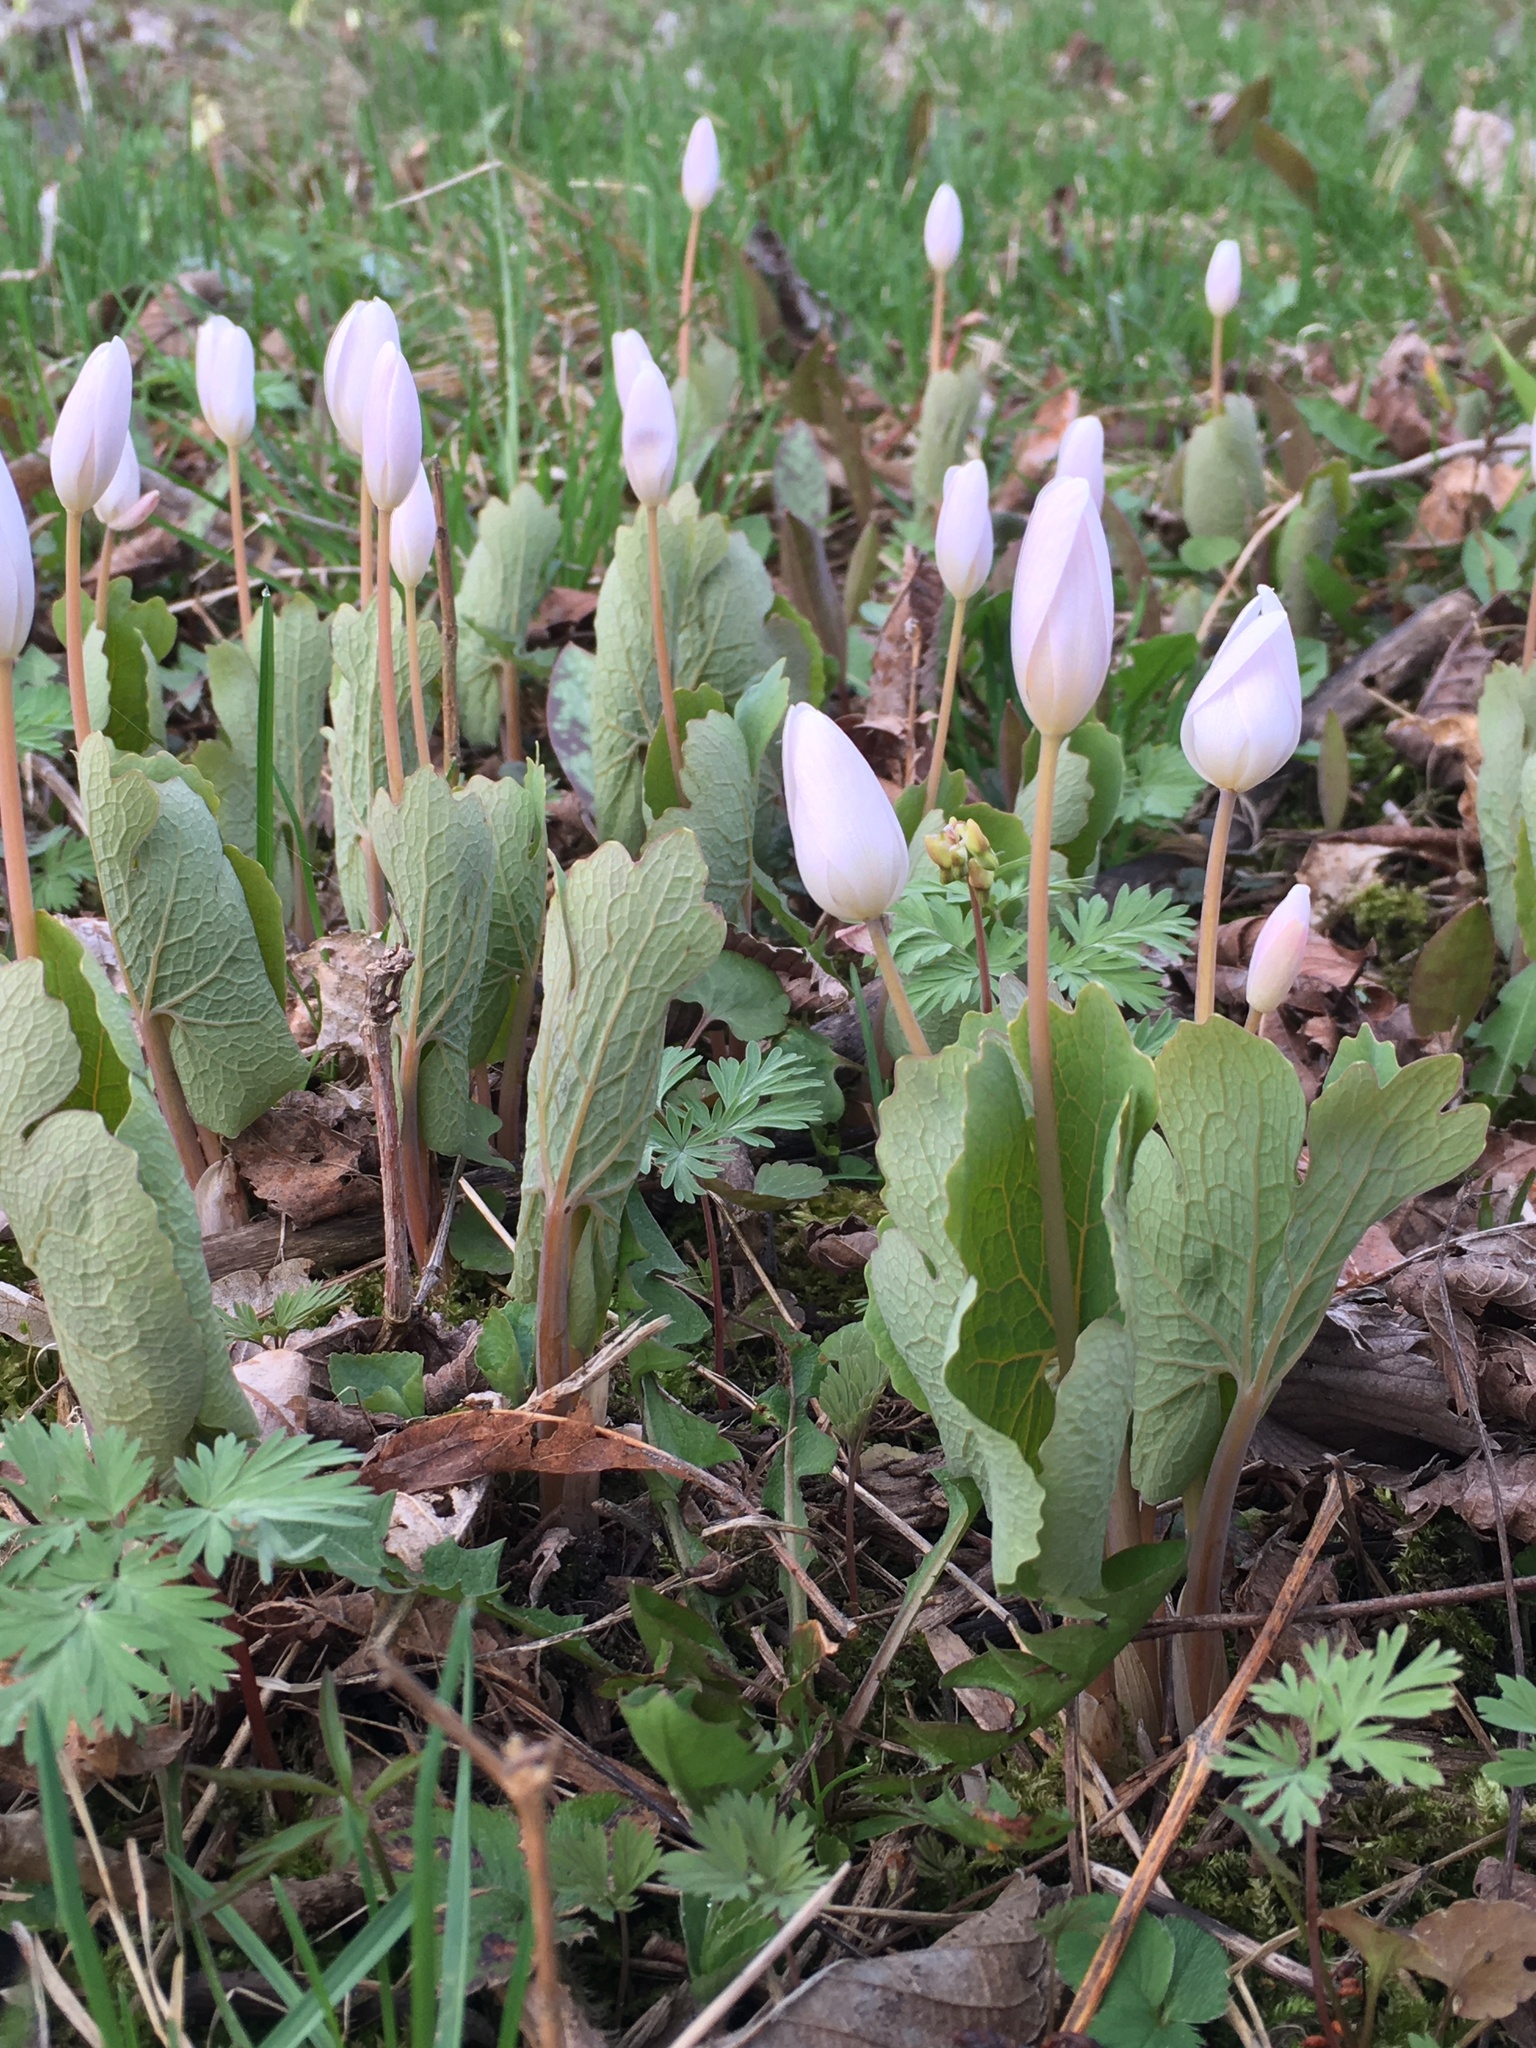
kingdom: Plantae
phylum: Tracheophyta
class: Magnoliopsida
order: Ranunculales
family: Papaveraceae
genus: Sanguinaria
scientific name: Sanguinaria canadensis
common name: Bloodroot
